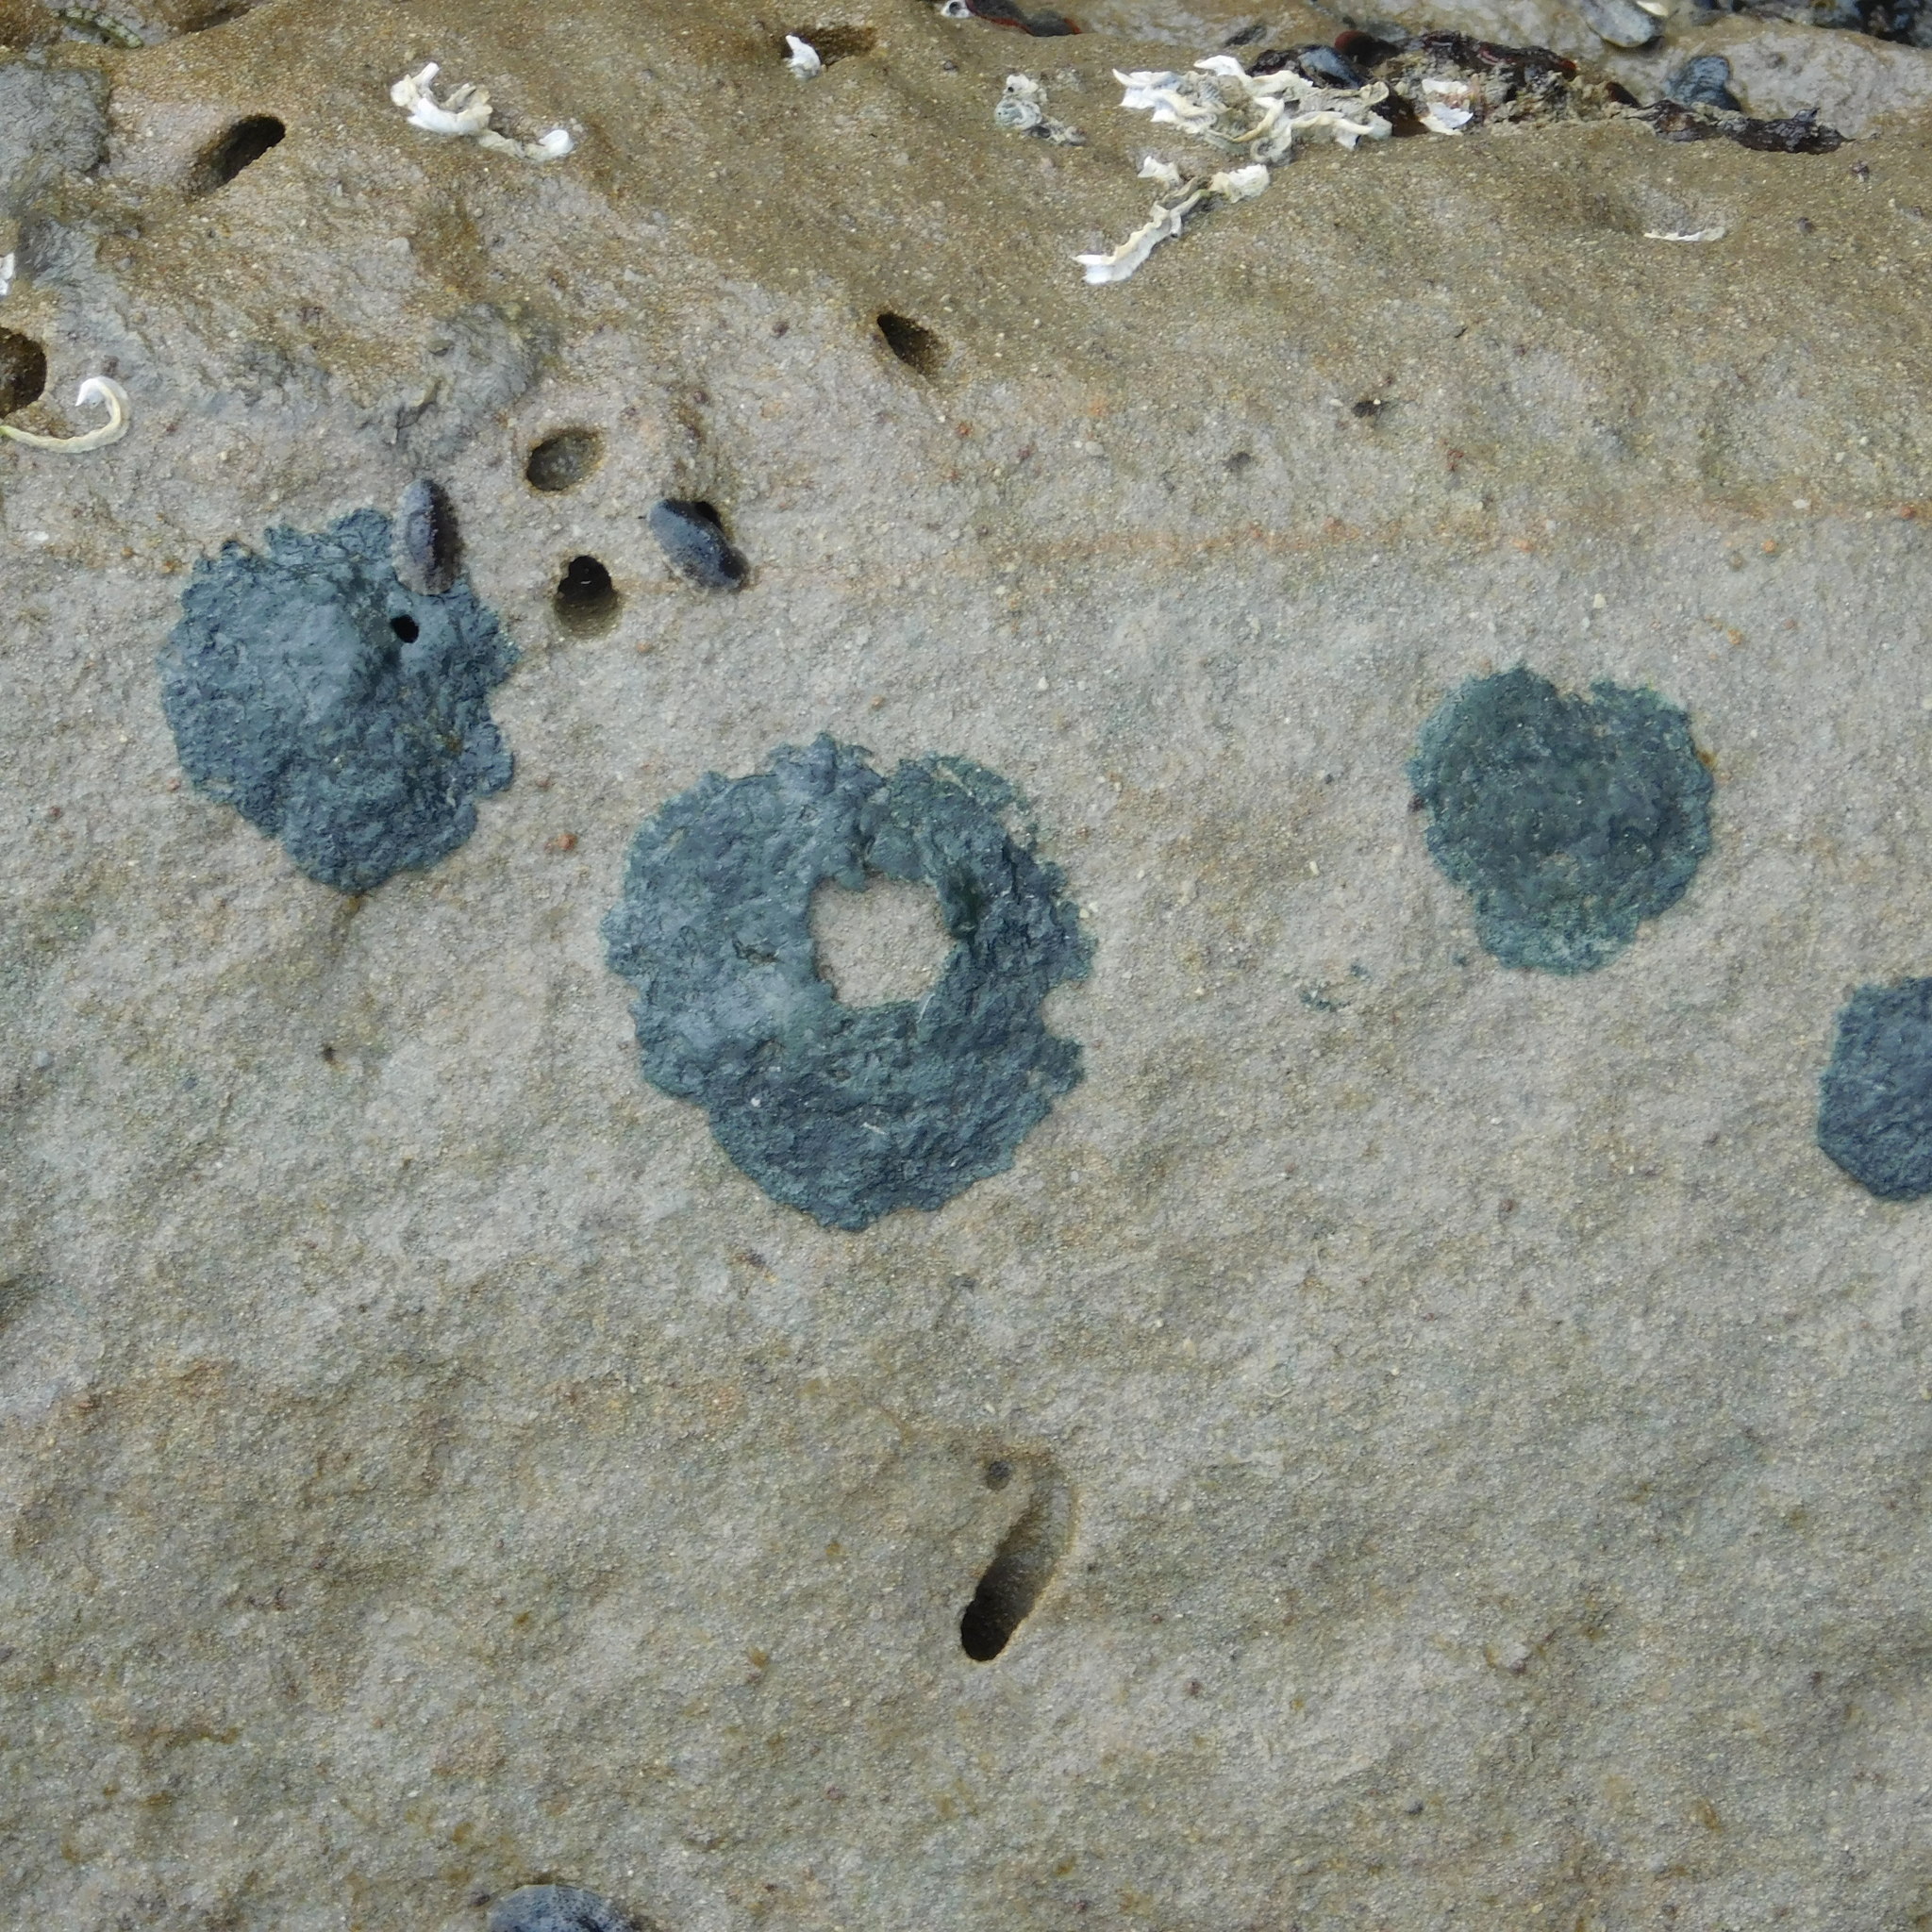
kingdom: Bacteria
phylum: Cyanobacteria
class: Cyanobacteriia
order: Cyanobacteriales
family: Microcoleaceae
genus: Lyngbya
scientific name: Lyngbya lutea
